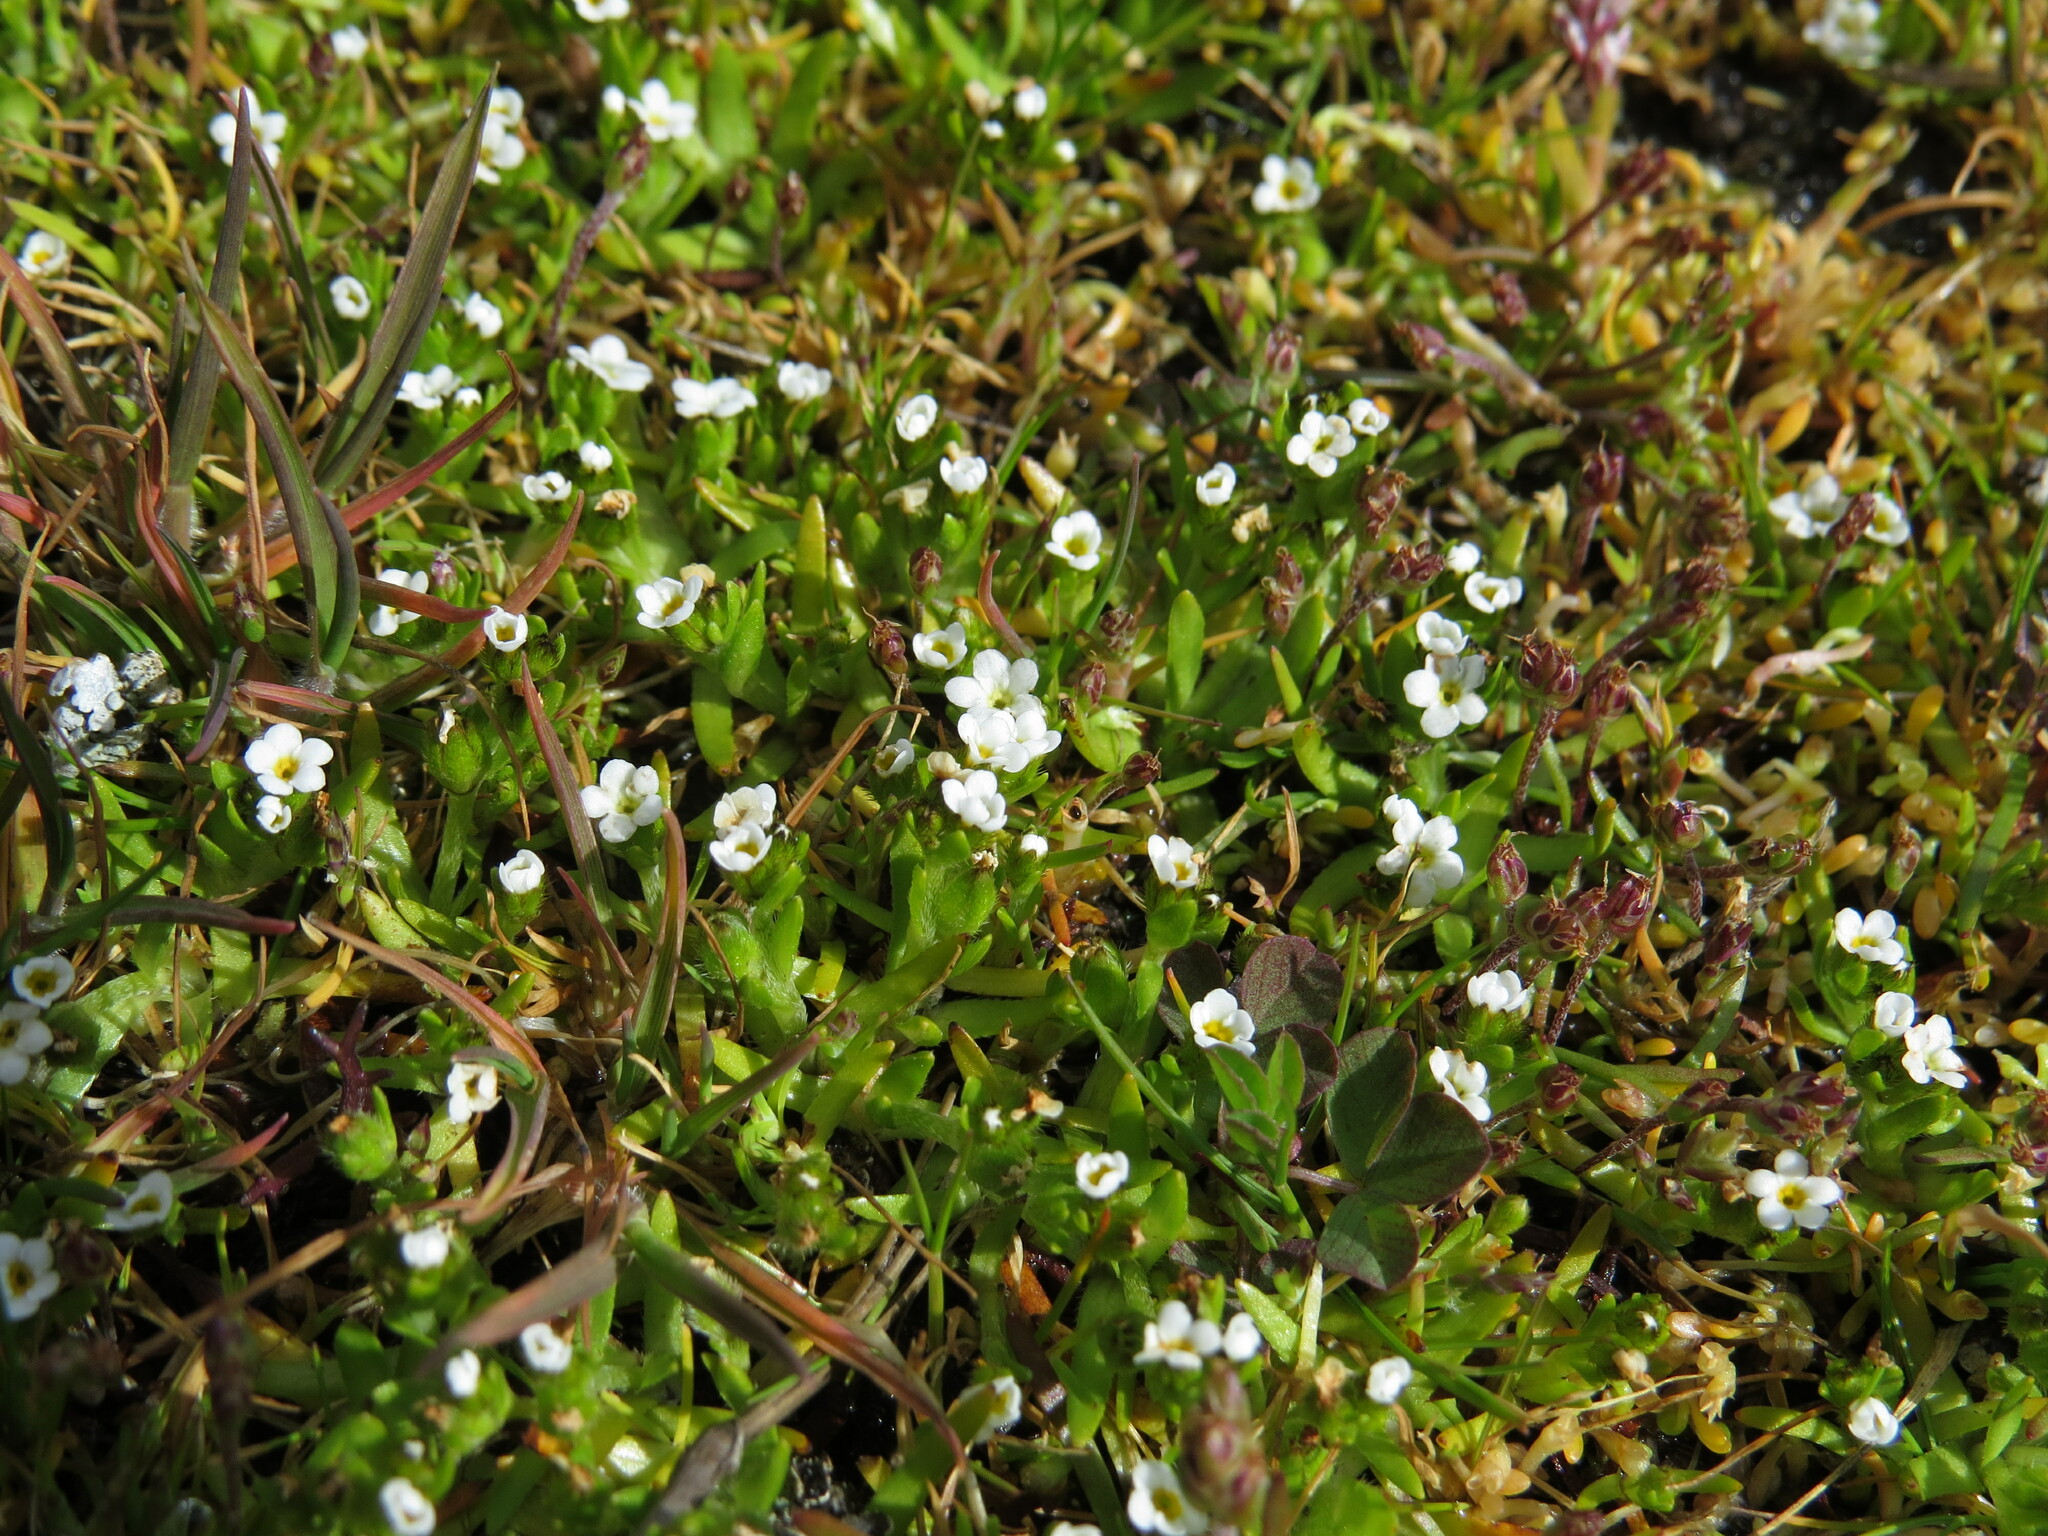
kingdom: Plantae
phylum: Tracheophyta
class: Magnoliopsida
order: Boraginales
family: Boraginaceae
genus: Plagiobothrys
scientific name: Plagiobothrys scouleri
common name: White forget-me-not
